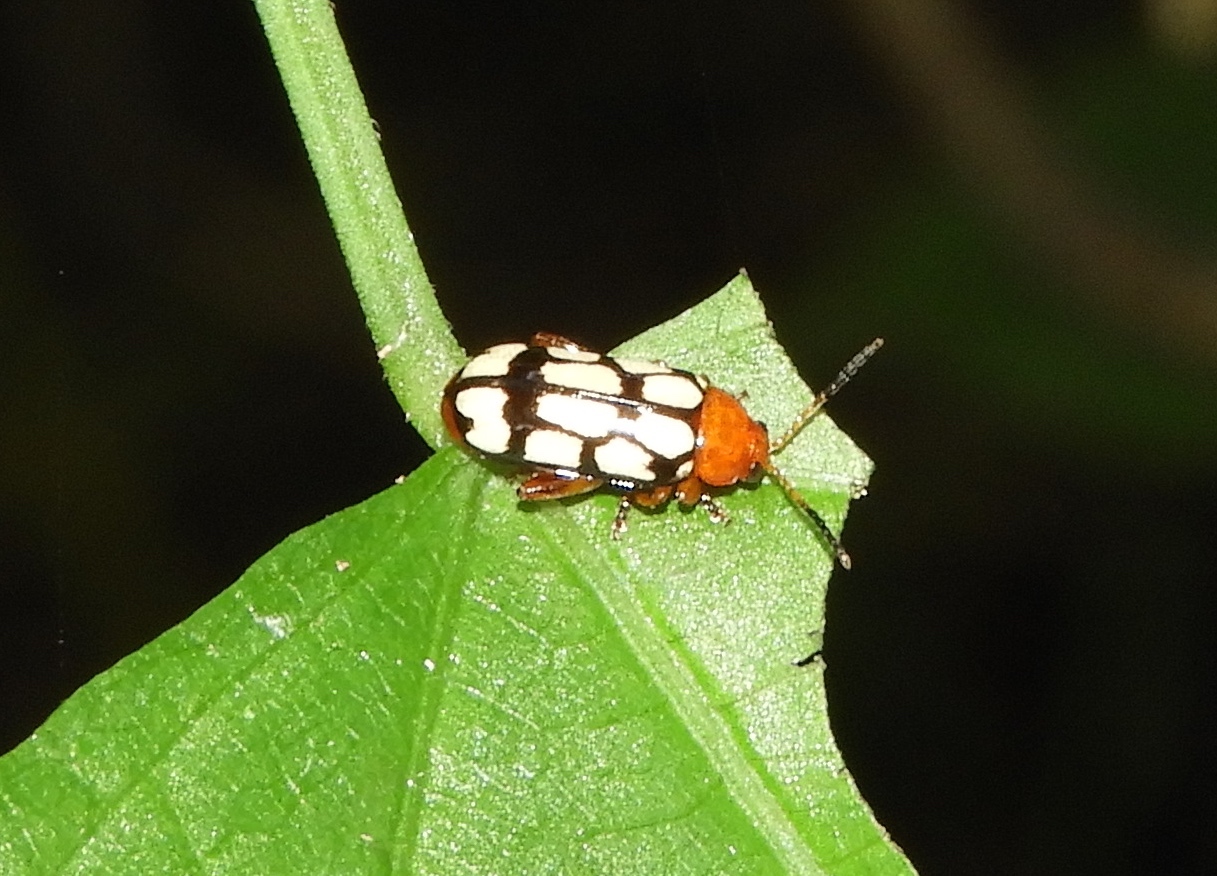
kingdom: Animalia
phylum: Arthropoda
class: Insecta
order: Coleoptera
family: Chrysomelidae
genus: Disonycha
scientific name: Disonycha
